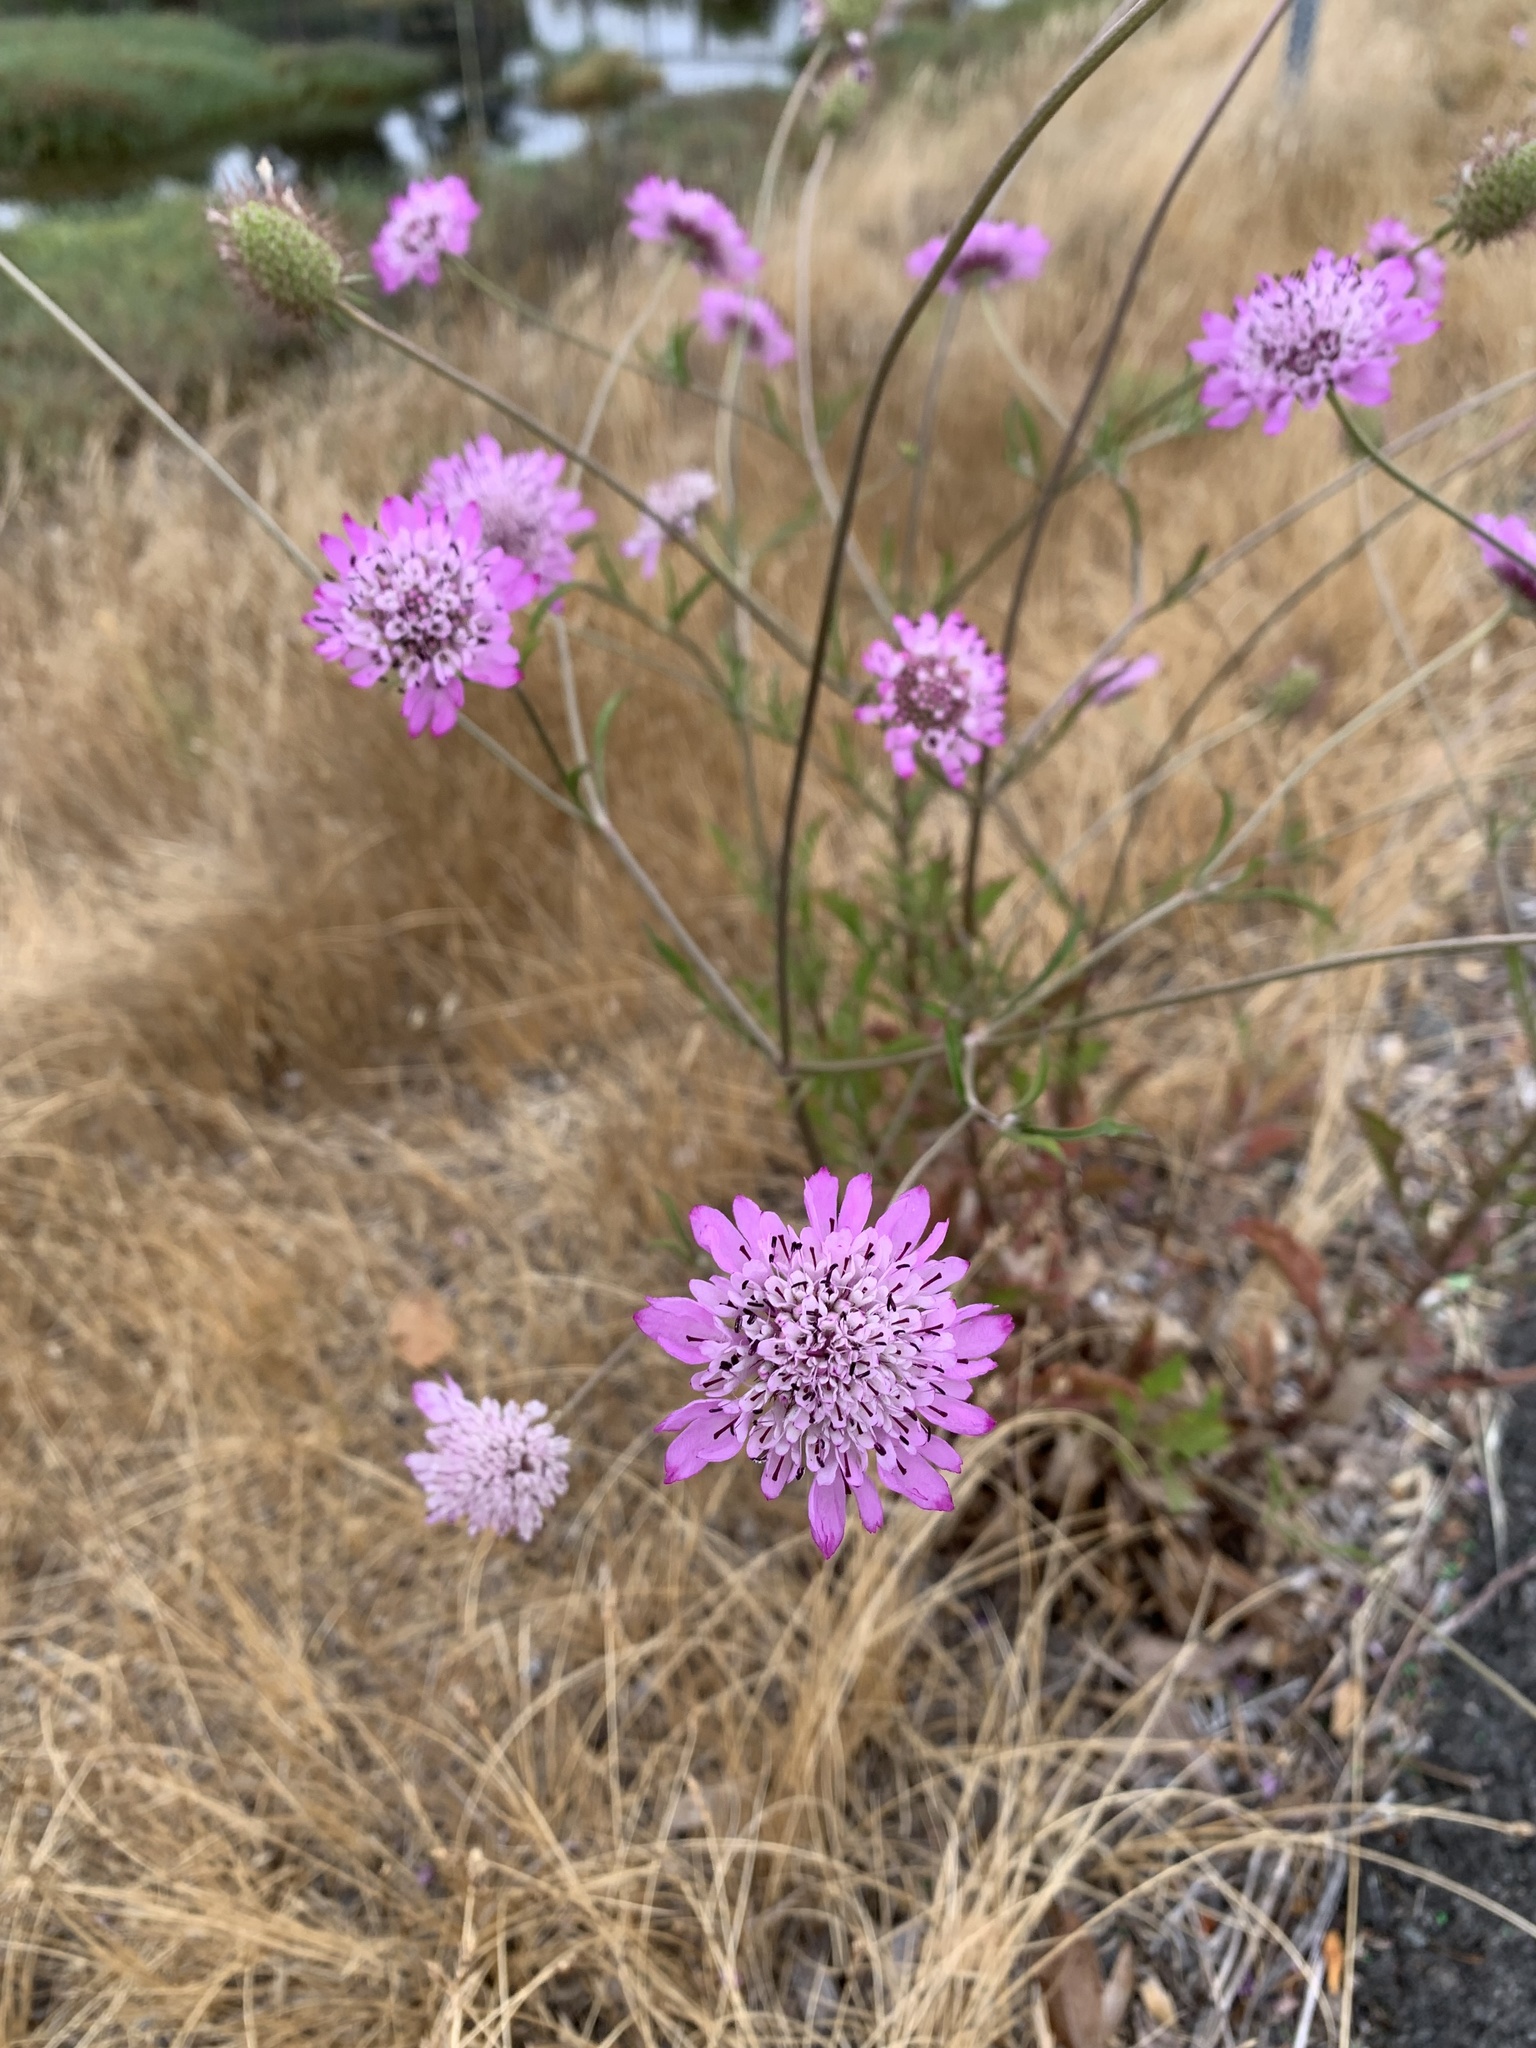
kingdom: Plantae
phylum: Tracheophyta
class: Magnoliopsida
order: Dipsacales
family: Caprifoliaceae
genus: Sixalix
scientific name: Sixalix atropurpurea
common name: Sweet scabious
